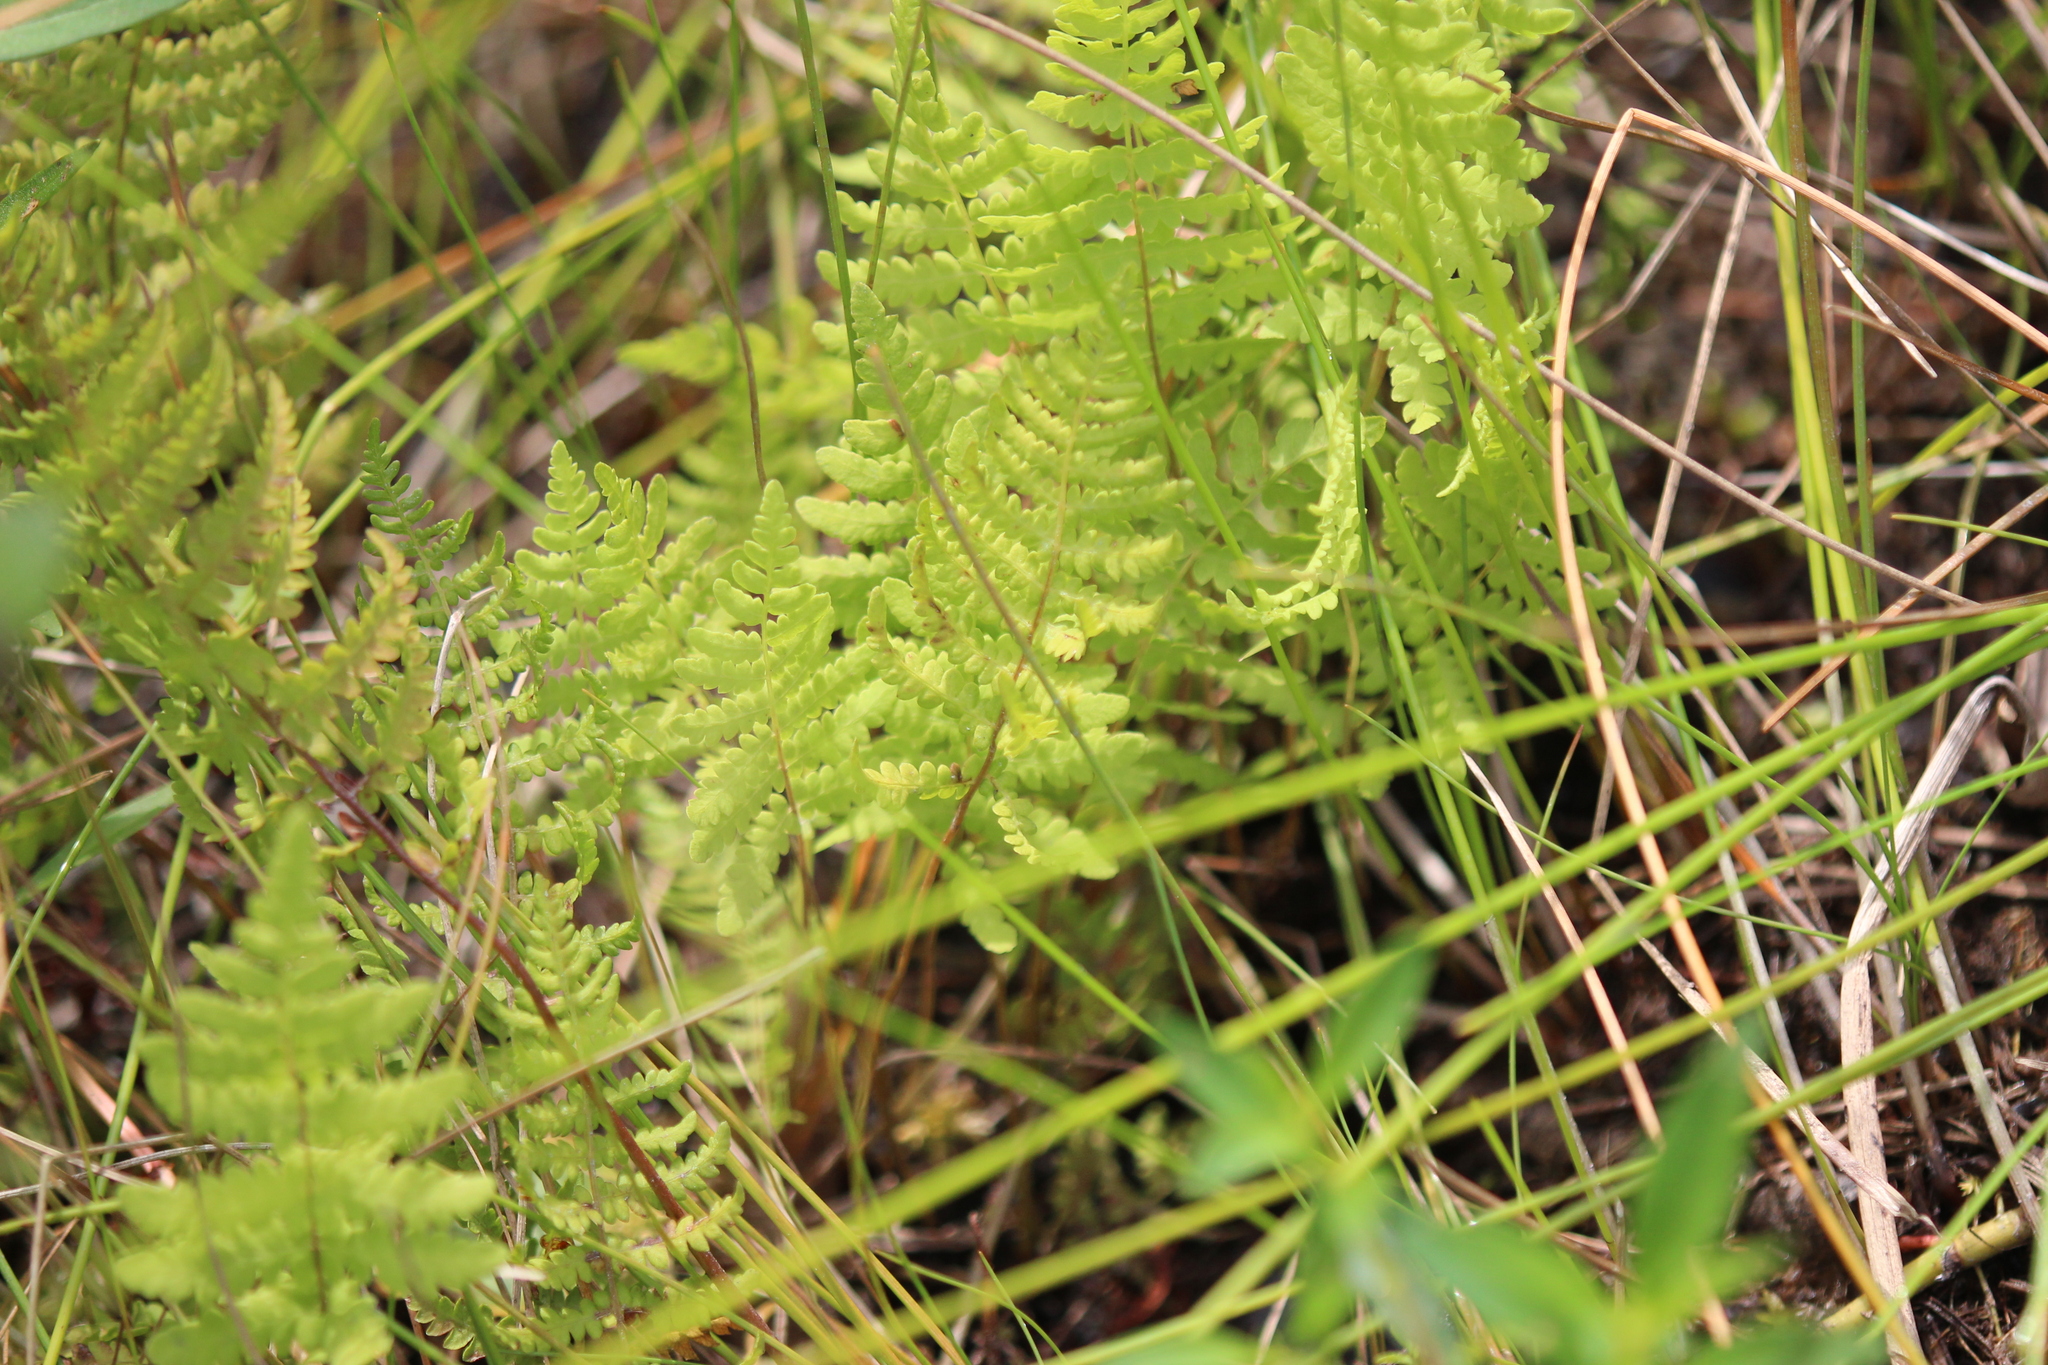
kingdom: Plantae
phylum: Tracheophyta
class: Polypodiopsida
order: Polypodiales
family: Thelypteridaceae
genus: Thelypteris
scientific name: Thelypteris palustris
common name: Marsh fern
